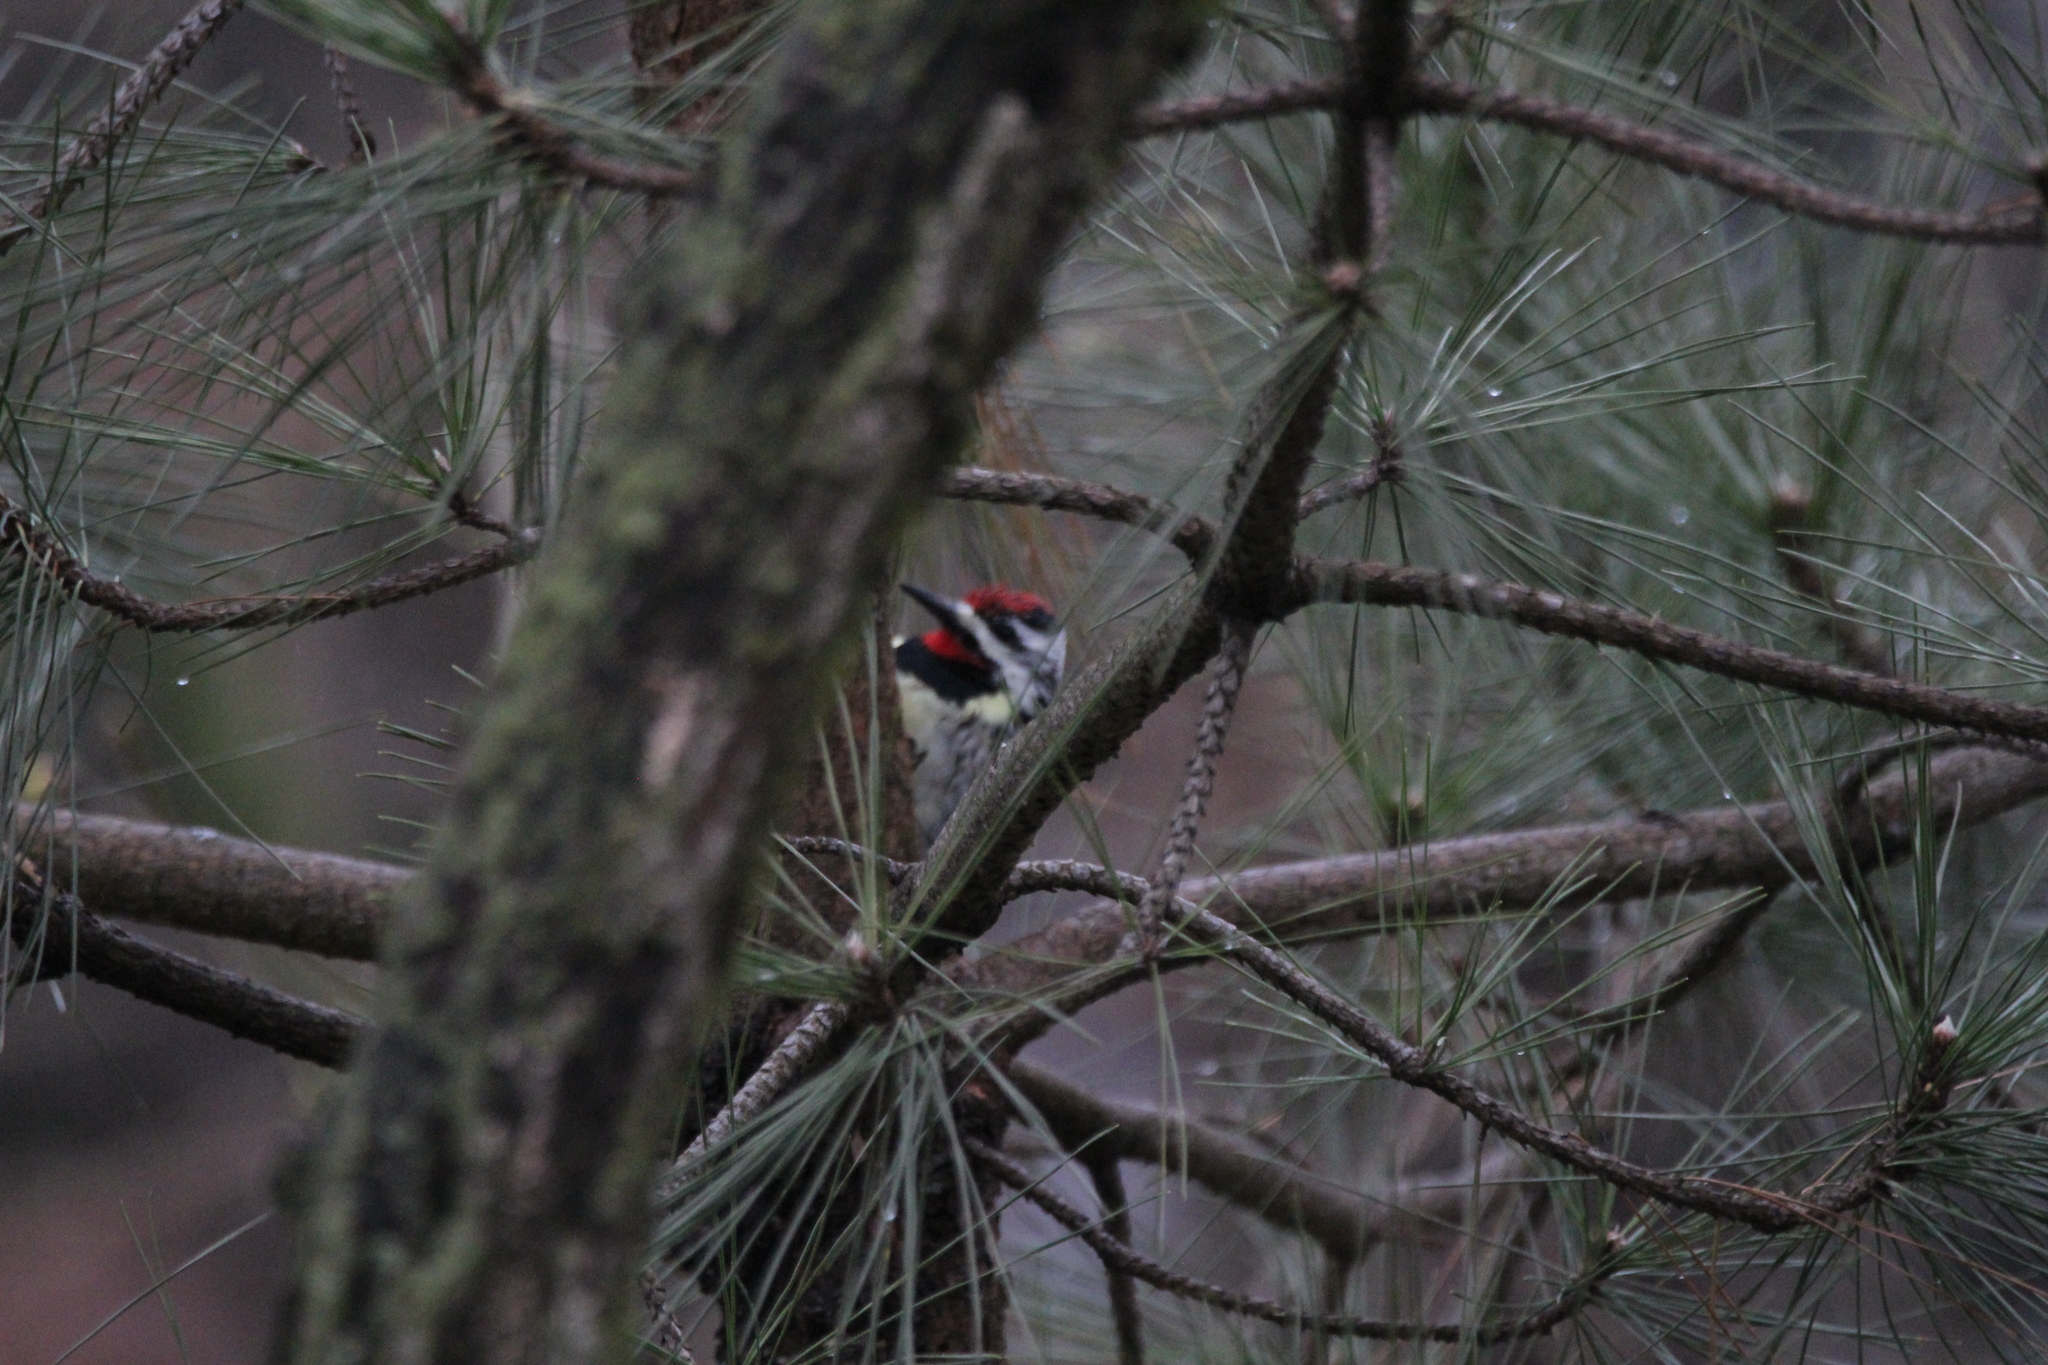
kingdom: Animalia
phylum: Chordata
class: Aves
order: Piciformes
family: Picidae
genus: Sphyrapicus
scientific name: Sphyrapicus varius
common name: Yellow-bellied sapsucker
